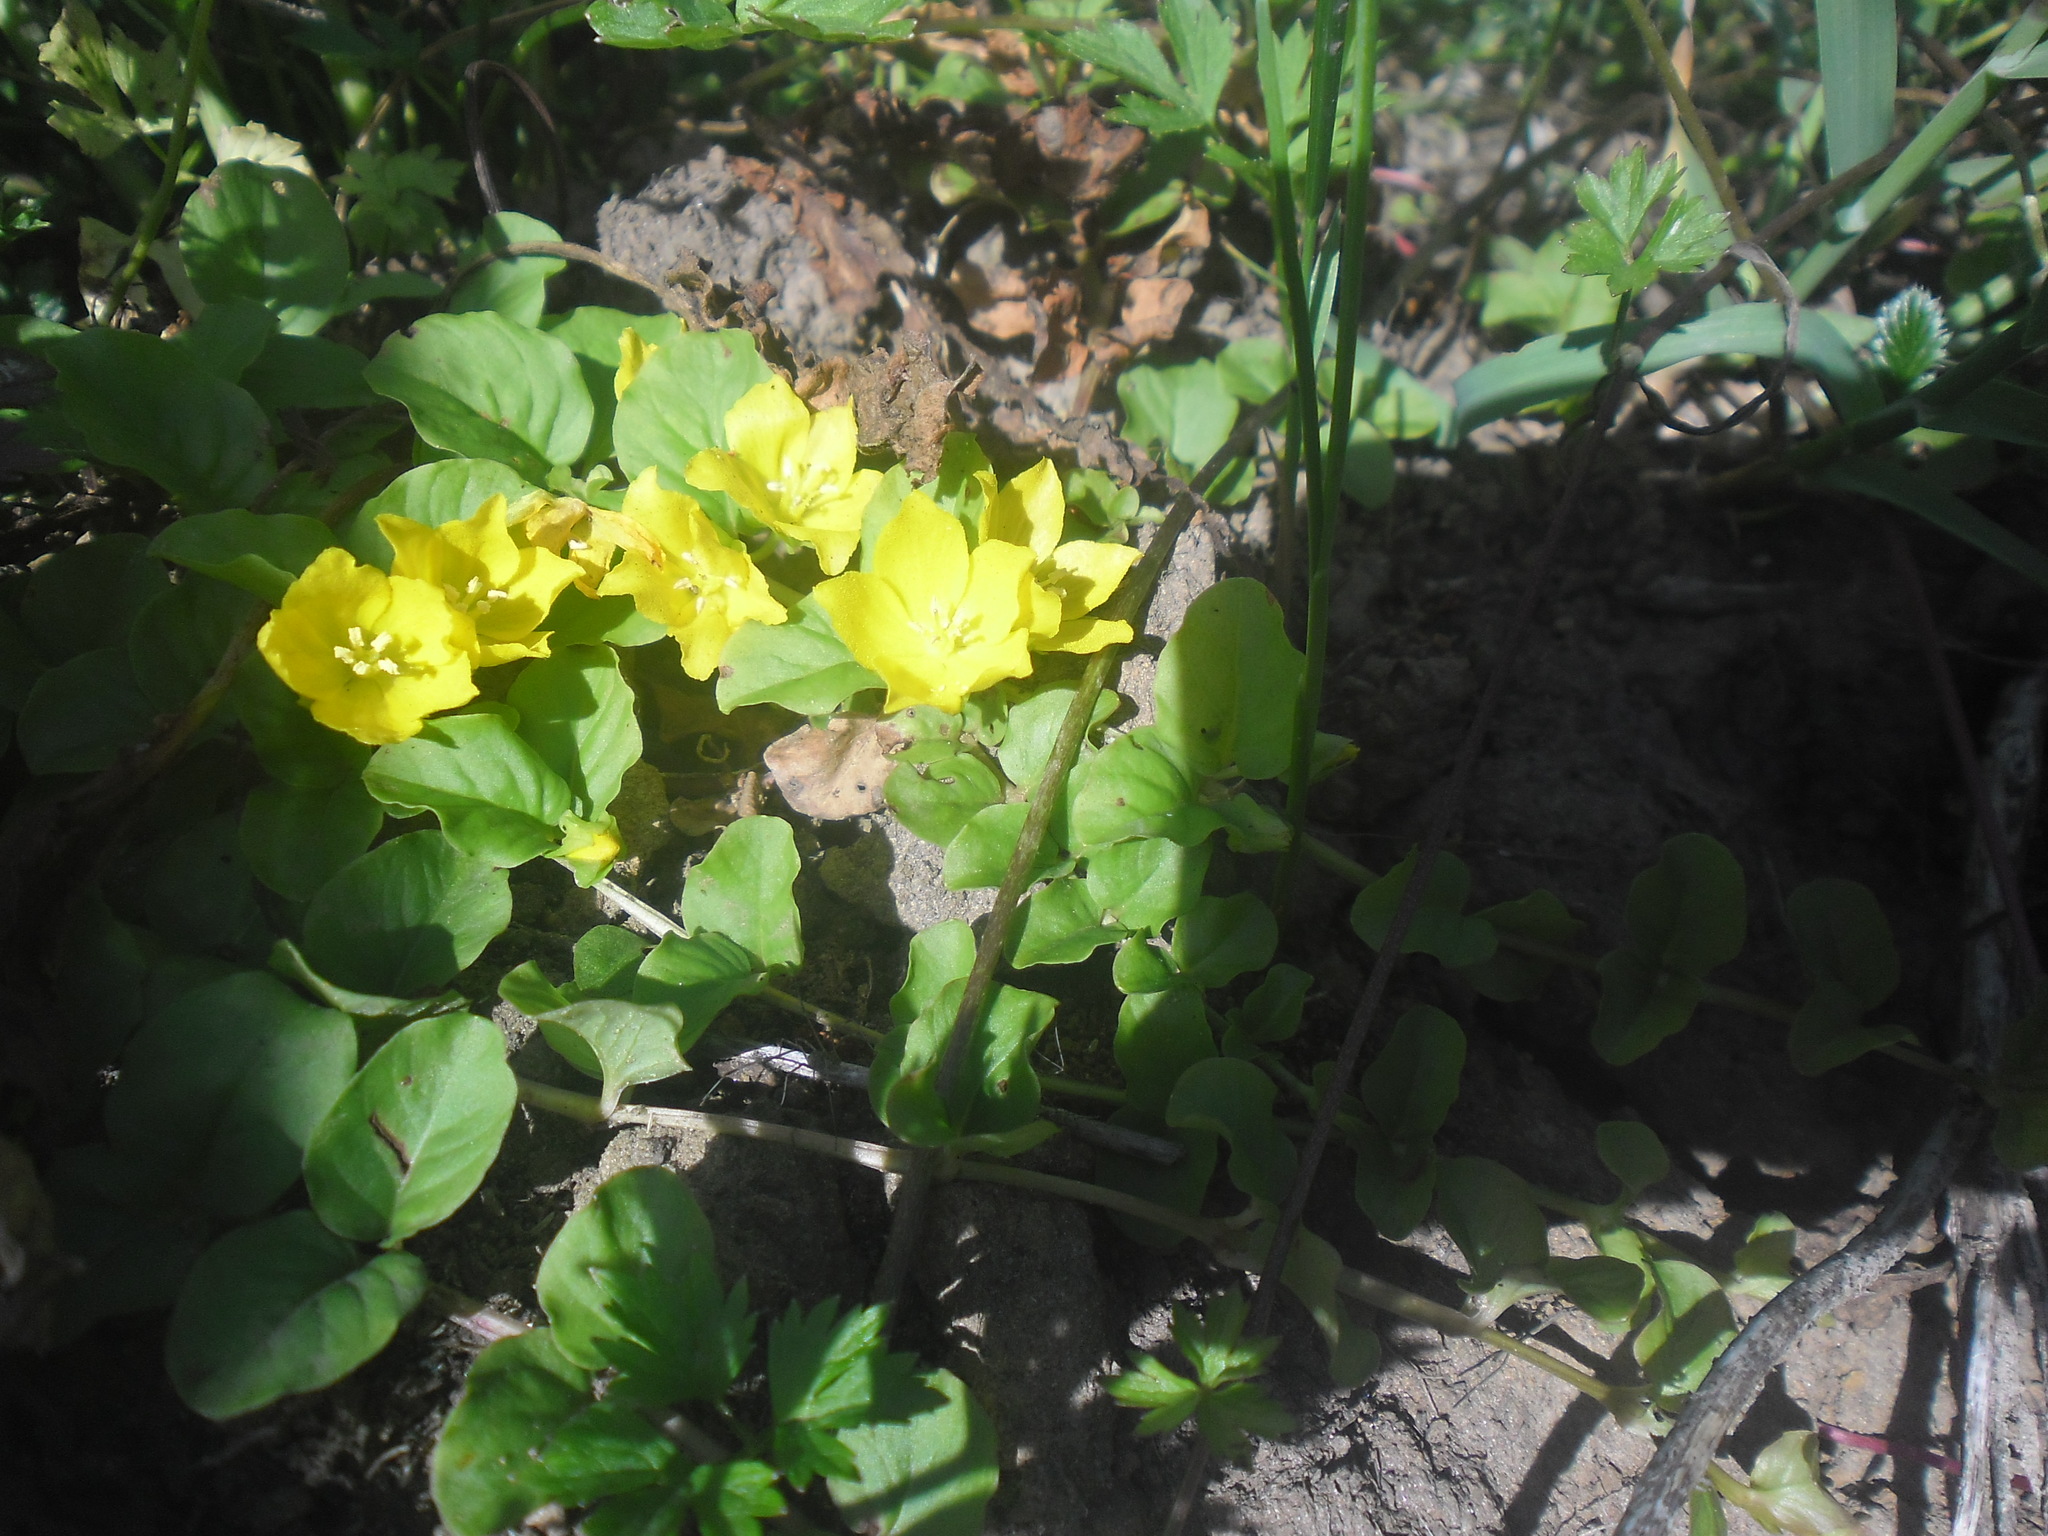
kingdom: Plantae
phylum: Tracheophyta
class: Magnoliopsida
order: Ericales
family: Primulaceae
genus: Lysimachia
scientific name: Lysimachia nummularia
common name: Moneywort
